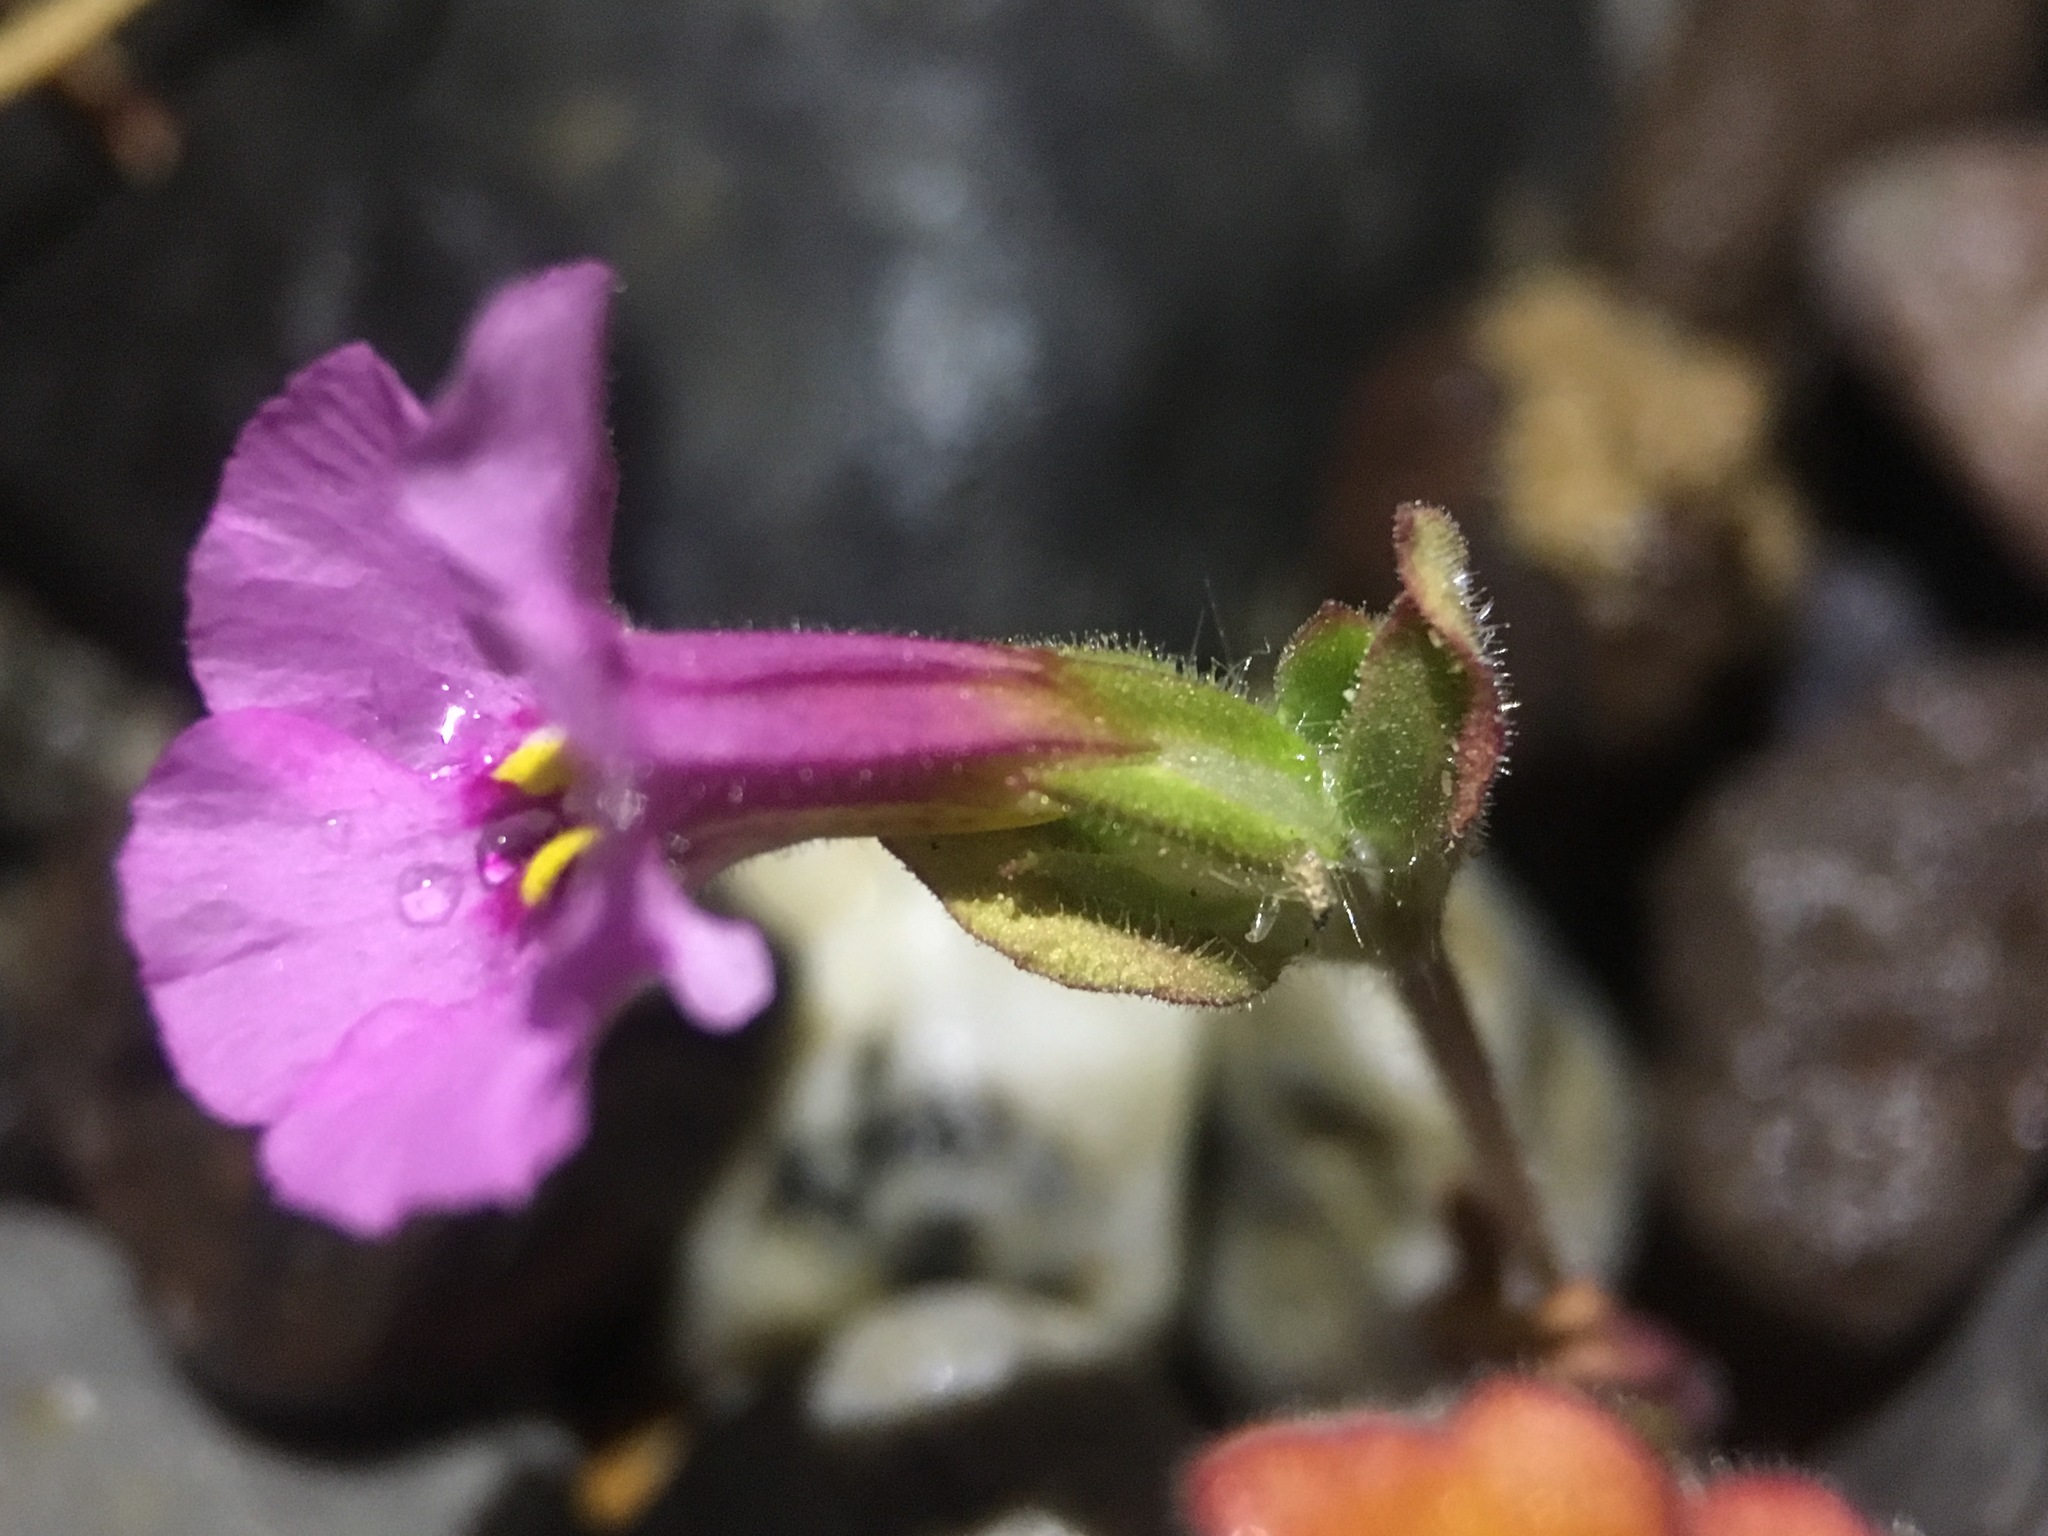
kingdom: Plantae
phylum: Tracheophyta
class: Magnoliopsida
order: Lamiales
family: Phrymaceae
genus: Diplacus
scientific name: Diplacus bigelovii
